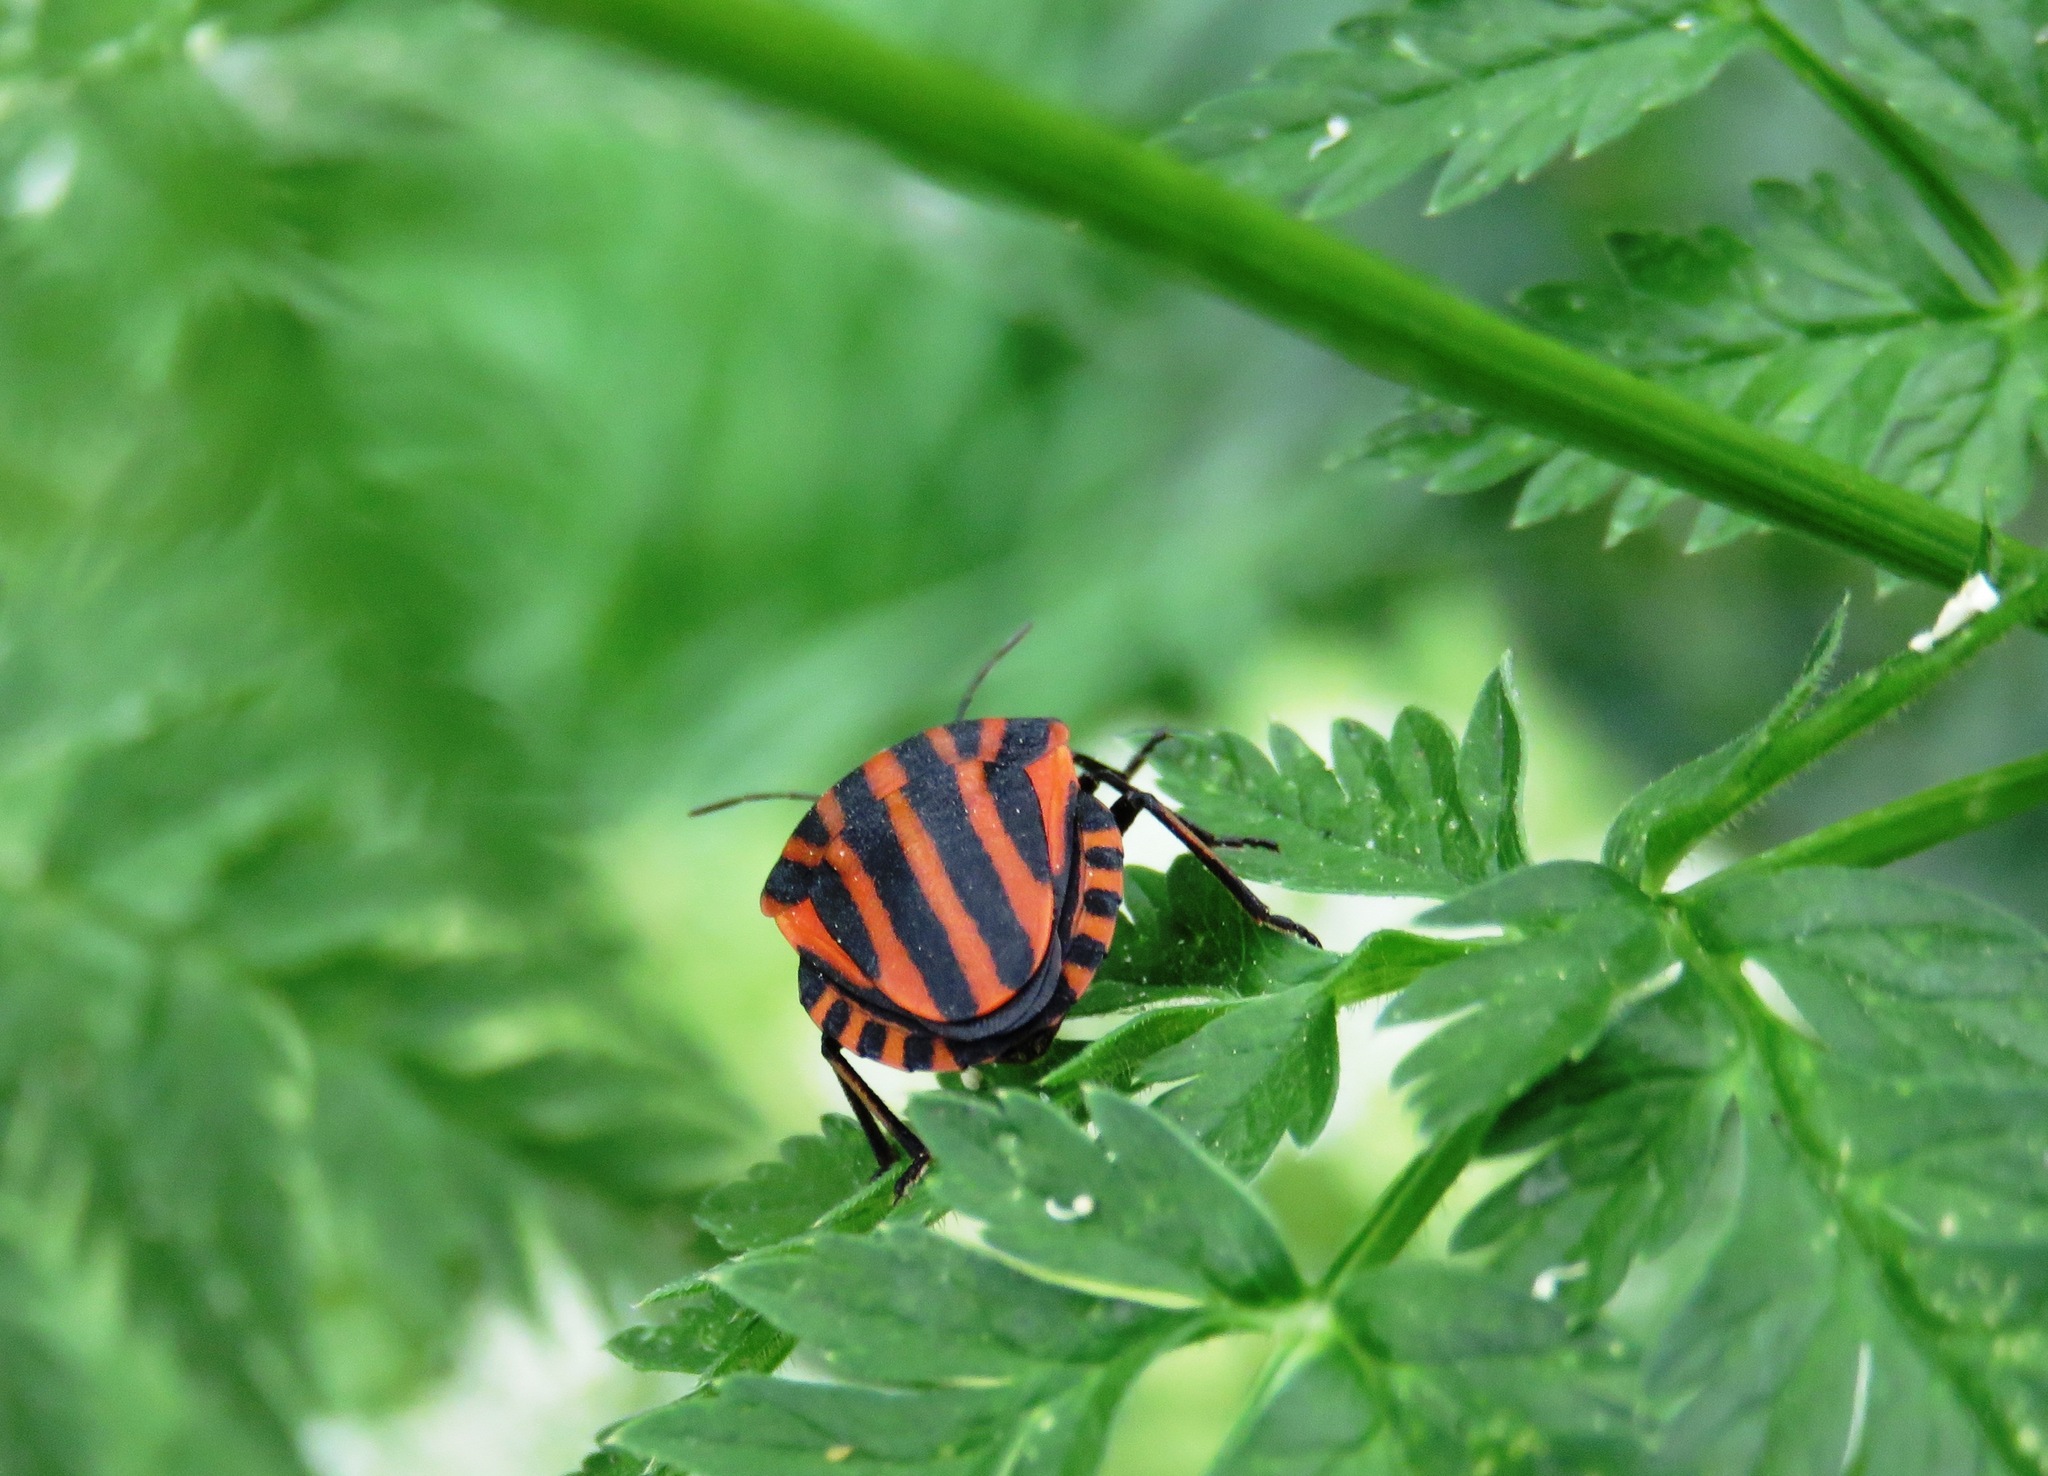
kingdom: Animalia
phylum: Arthropoda
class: Insecta
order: Hemiptera
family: Pentatomidae
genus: Graphosoma
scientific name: Graphosoma italicum
